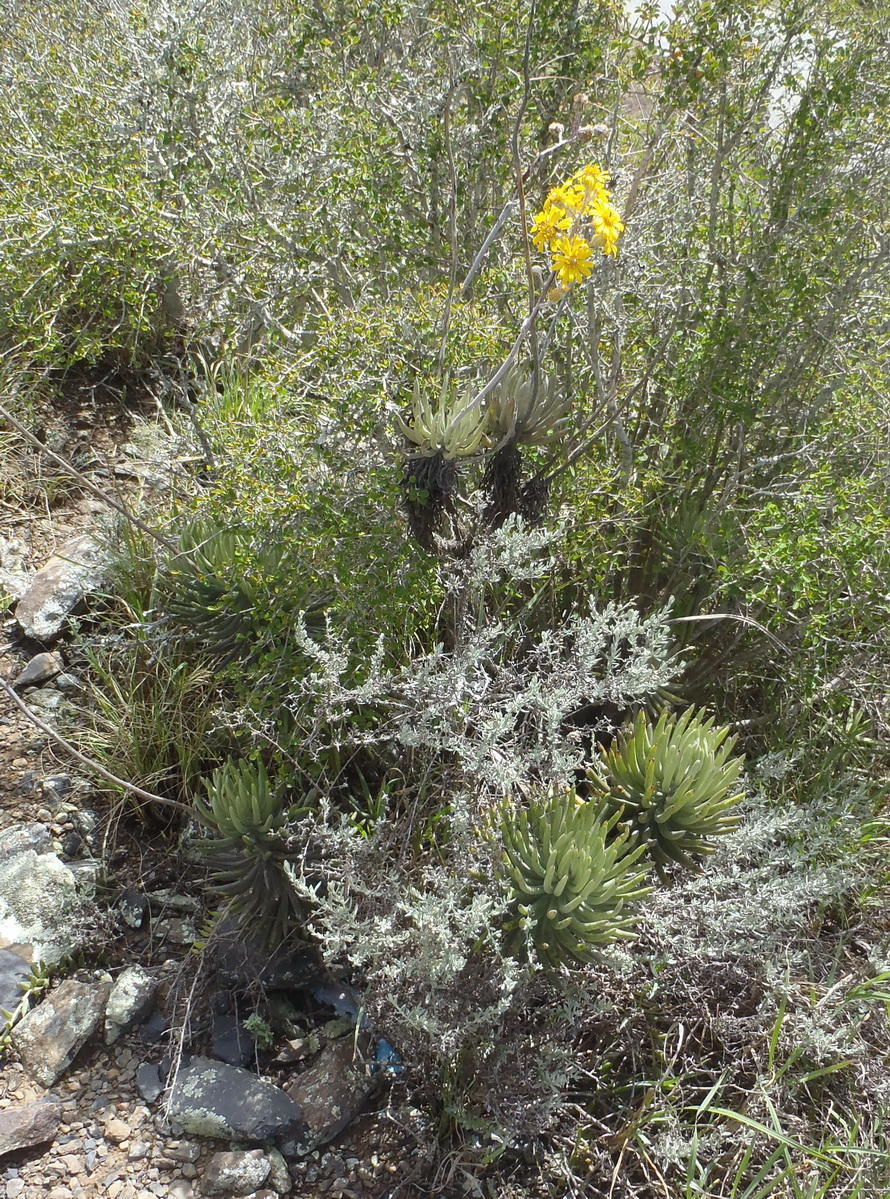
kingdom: Plantae
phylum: Tracheophyta
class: Magnoliopsida
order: Asterales
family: Asteraceae
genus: Caputia
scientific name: Caputia pyramidata
